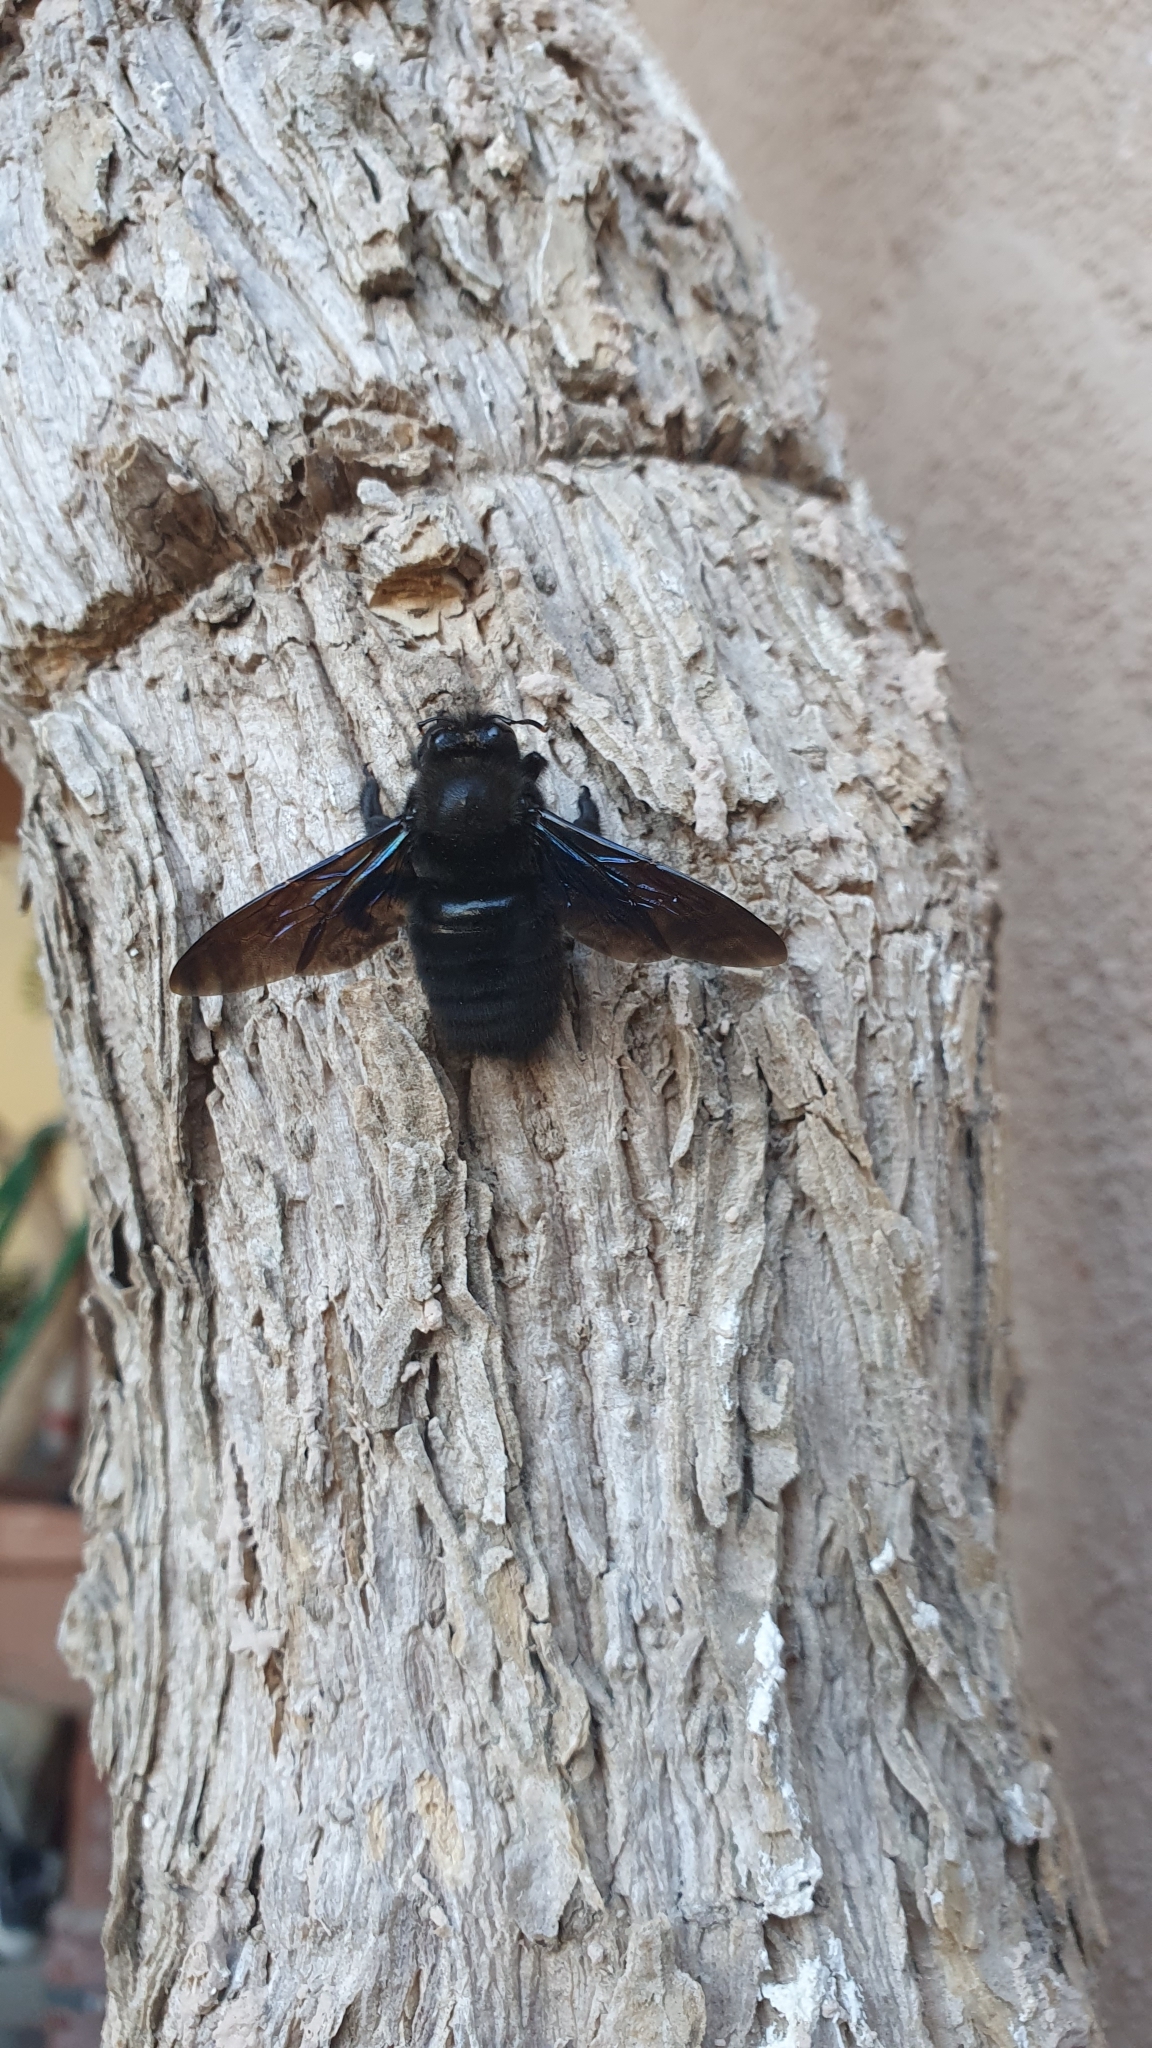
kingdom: Animalia
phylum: Arthropoda
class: Insecta
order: Hymenoptera
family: Apidae
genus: Xylocopa
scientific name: Xylocopa violacea
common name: Violet carpenter bee
